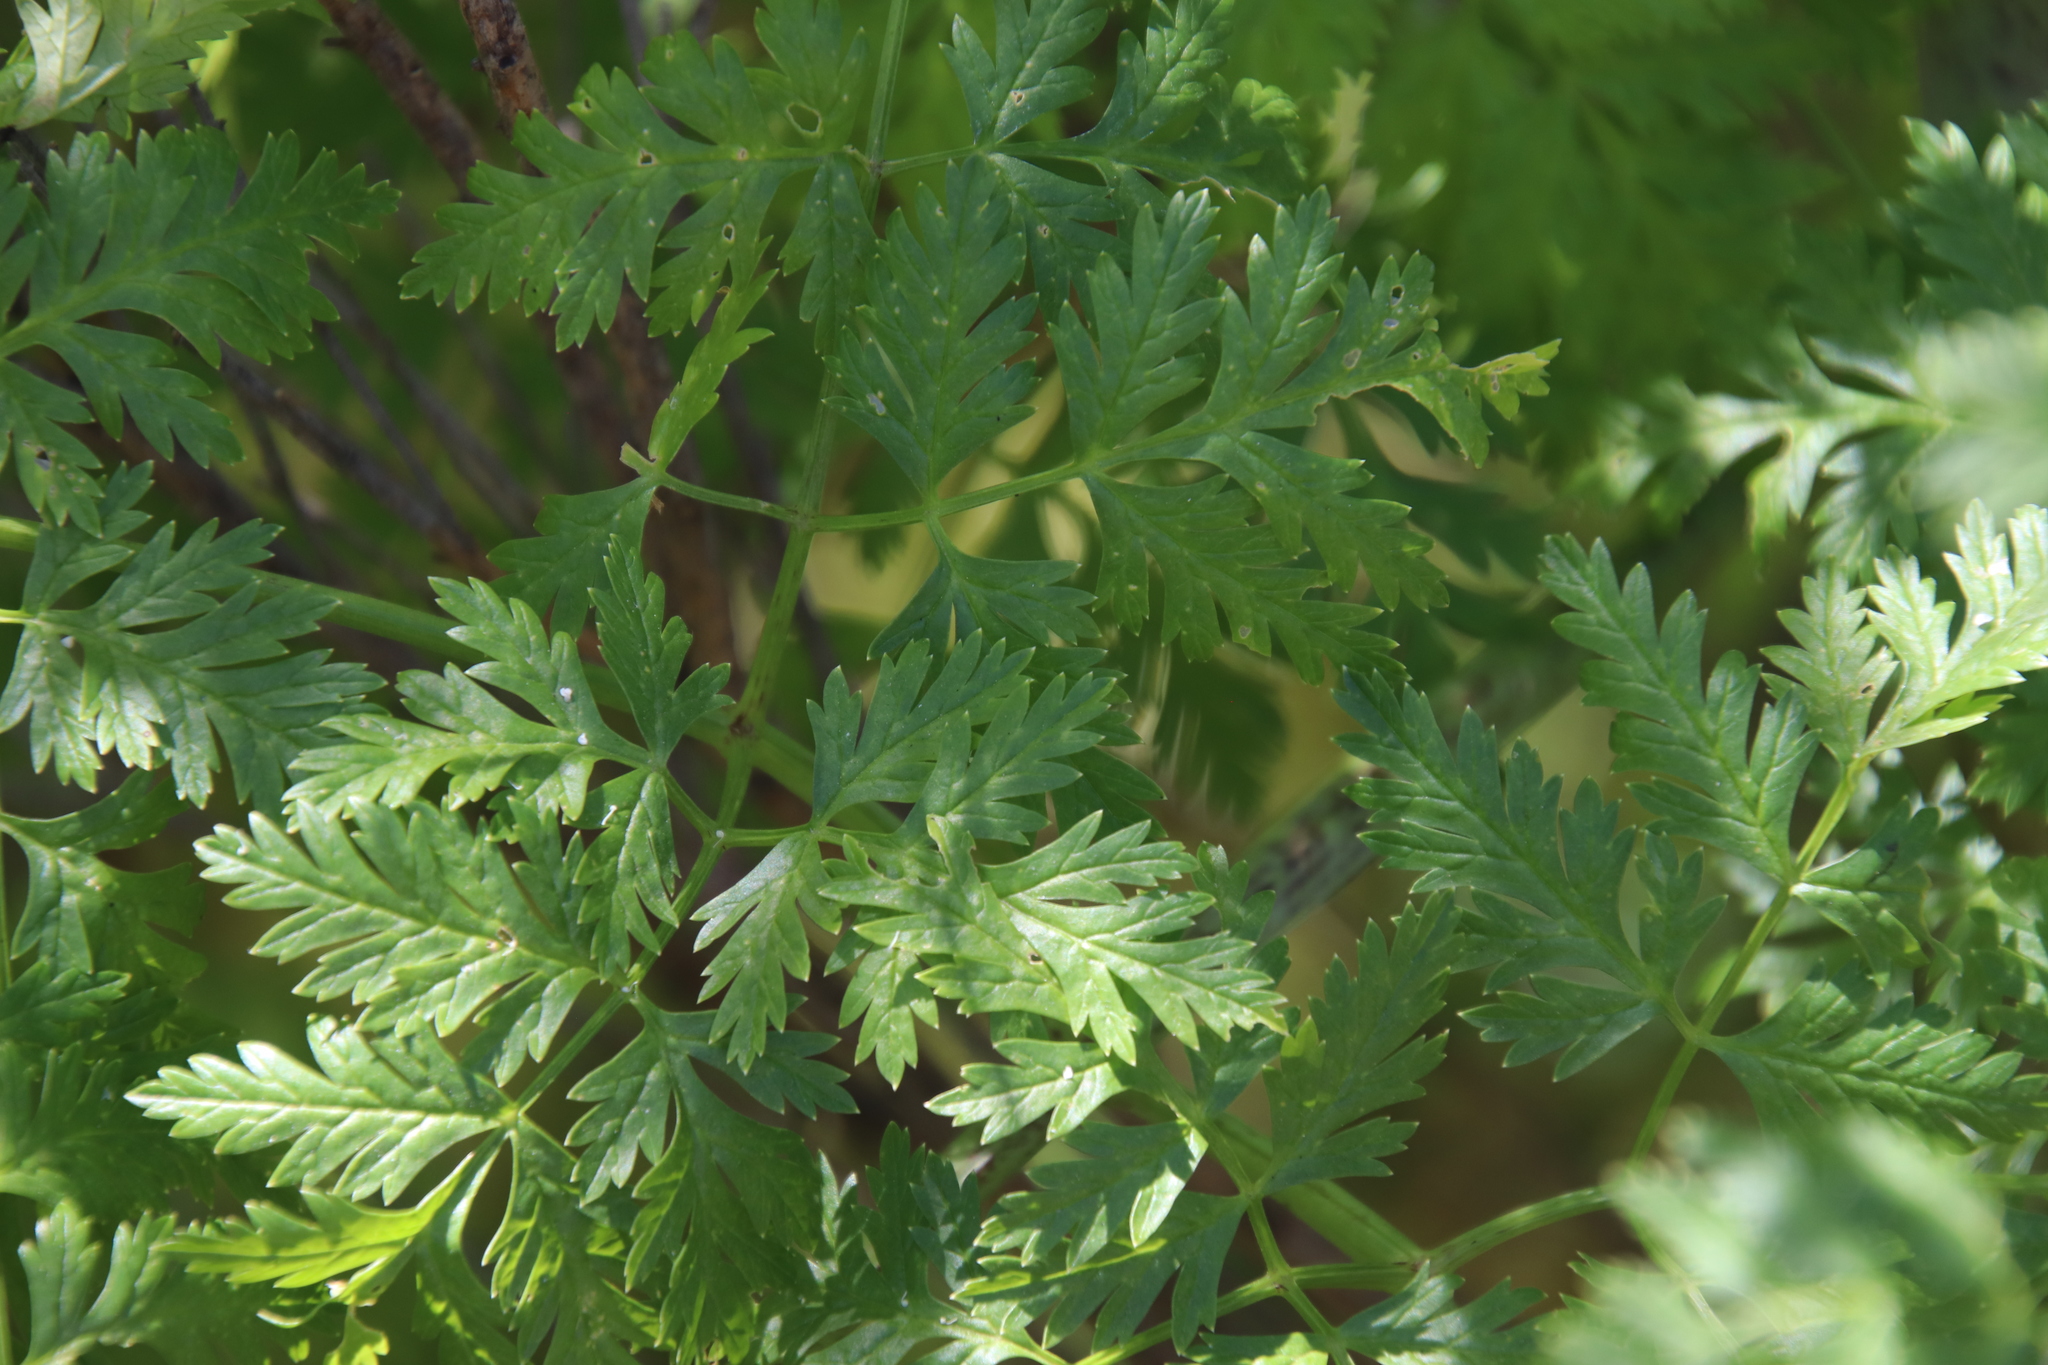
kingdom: Plantae
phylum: Tracheophyta
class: Magnoliopsida
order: Apiales
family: Apiaceae
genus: Conium
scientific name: Conium maculatum
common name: Hemlock
